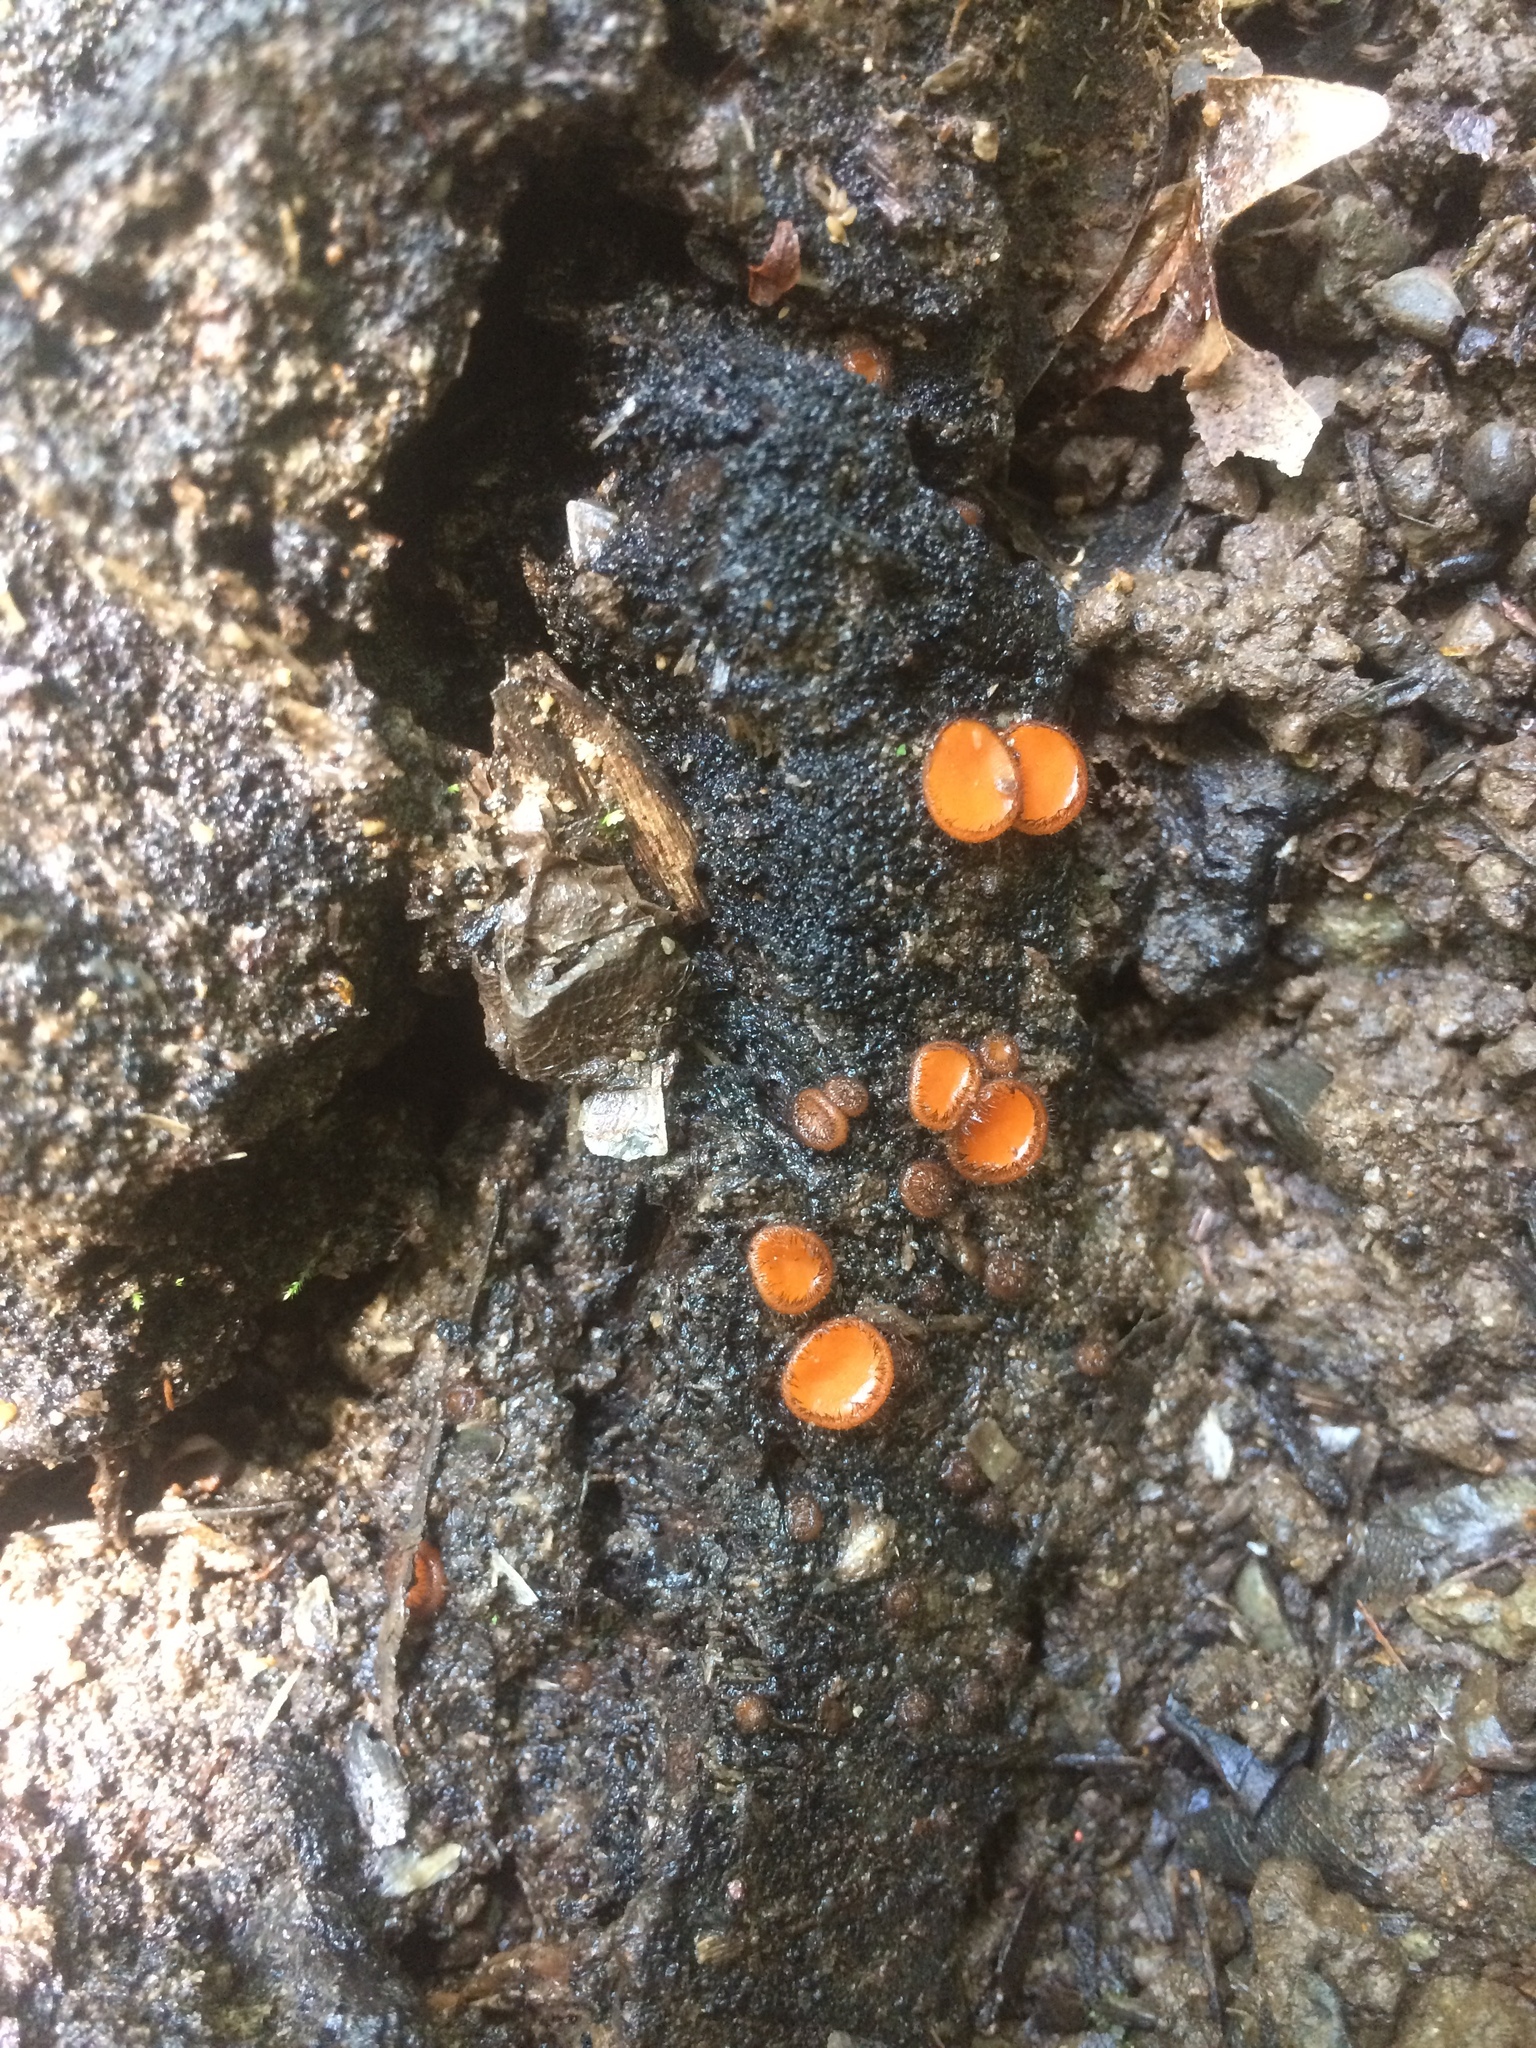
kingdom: Fungi
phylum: Ascomycota
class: Pezizomycetes
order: Pezizales
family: Pyronemataceae
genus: Scutellinia
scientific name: Scutellinia
